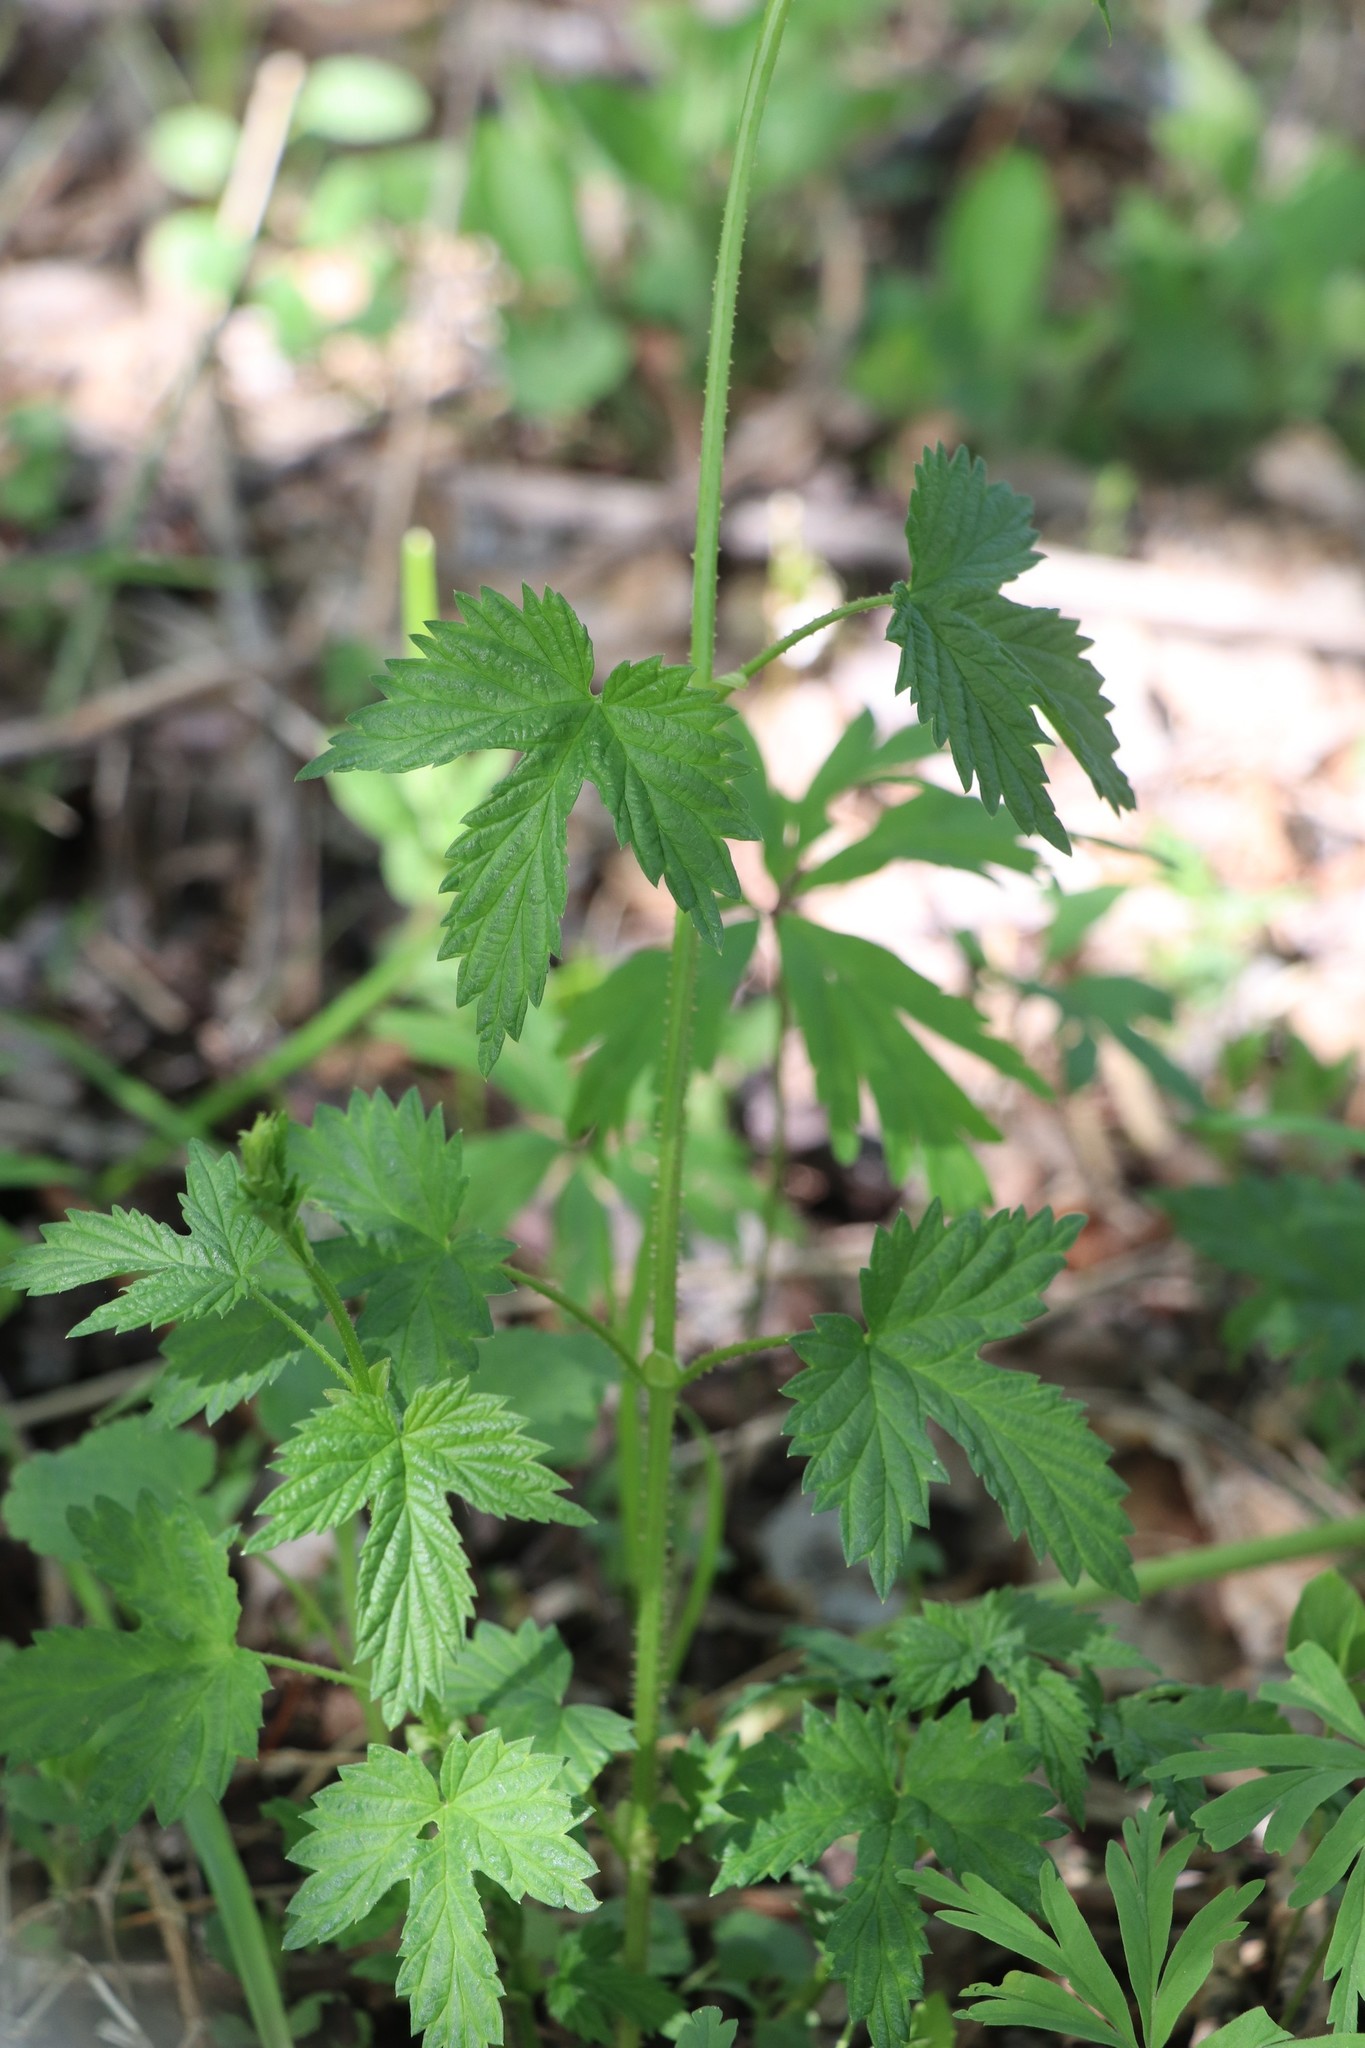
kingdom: Plantae
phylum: Tracheophyta
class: Magnoliopsida
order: Rosales
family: Cannabaceae
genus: Humulus
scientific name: Humulus lupulus
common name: Hop
